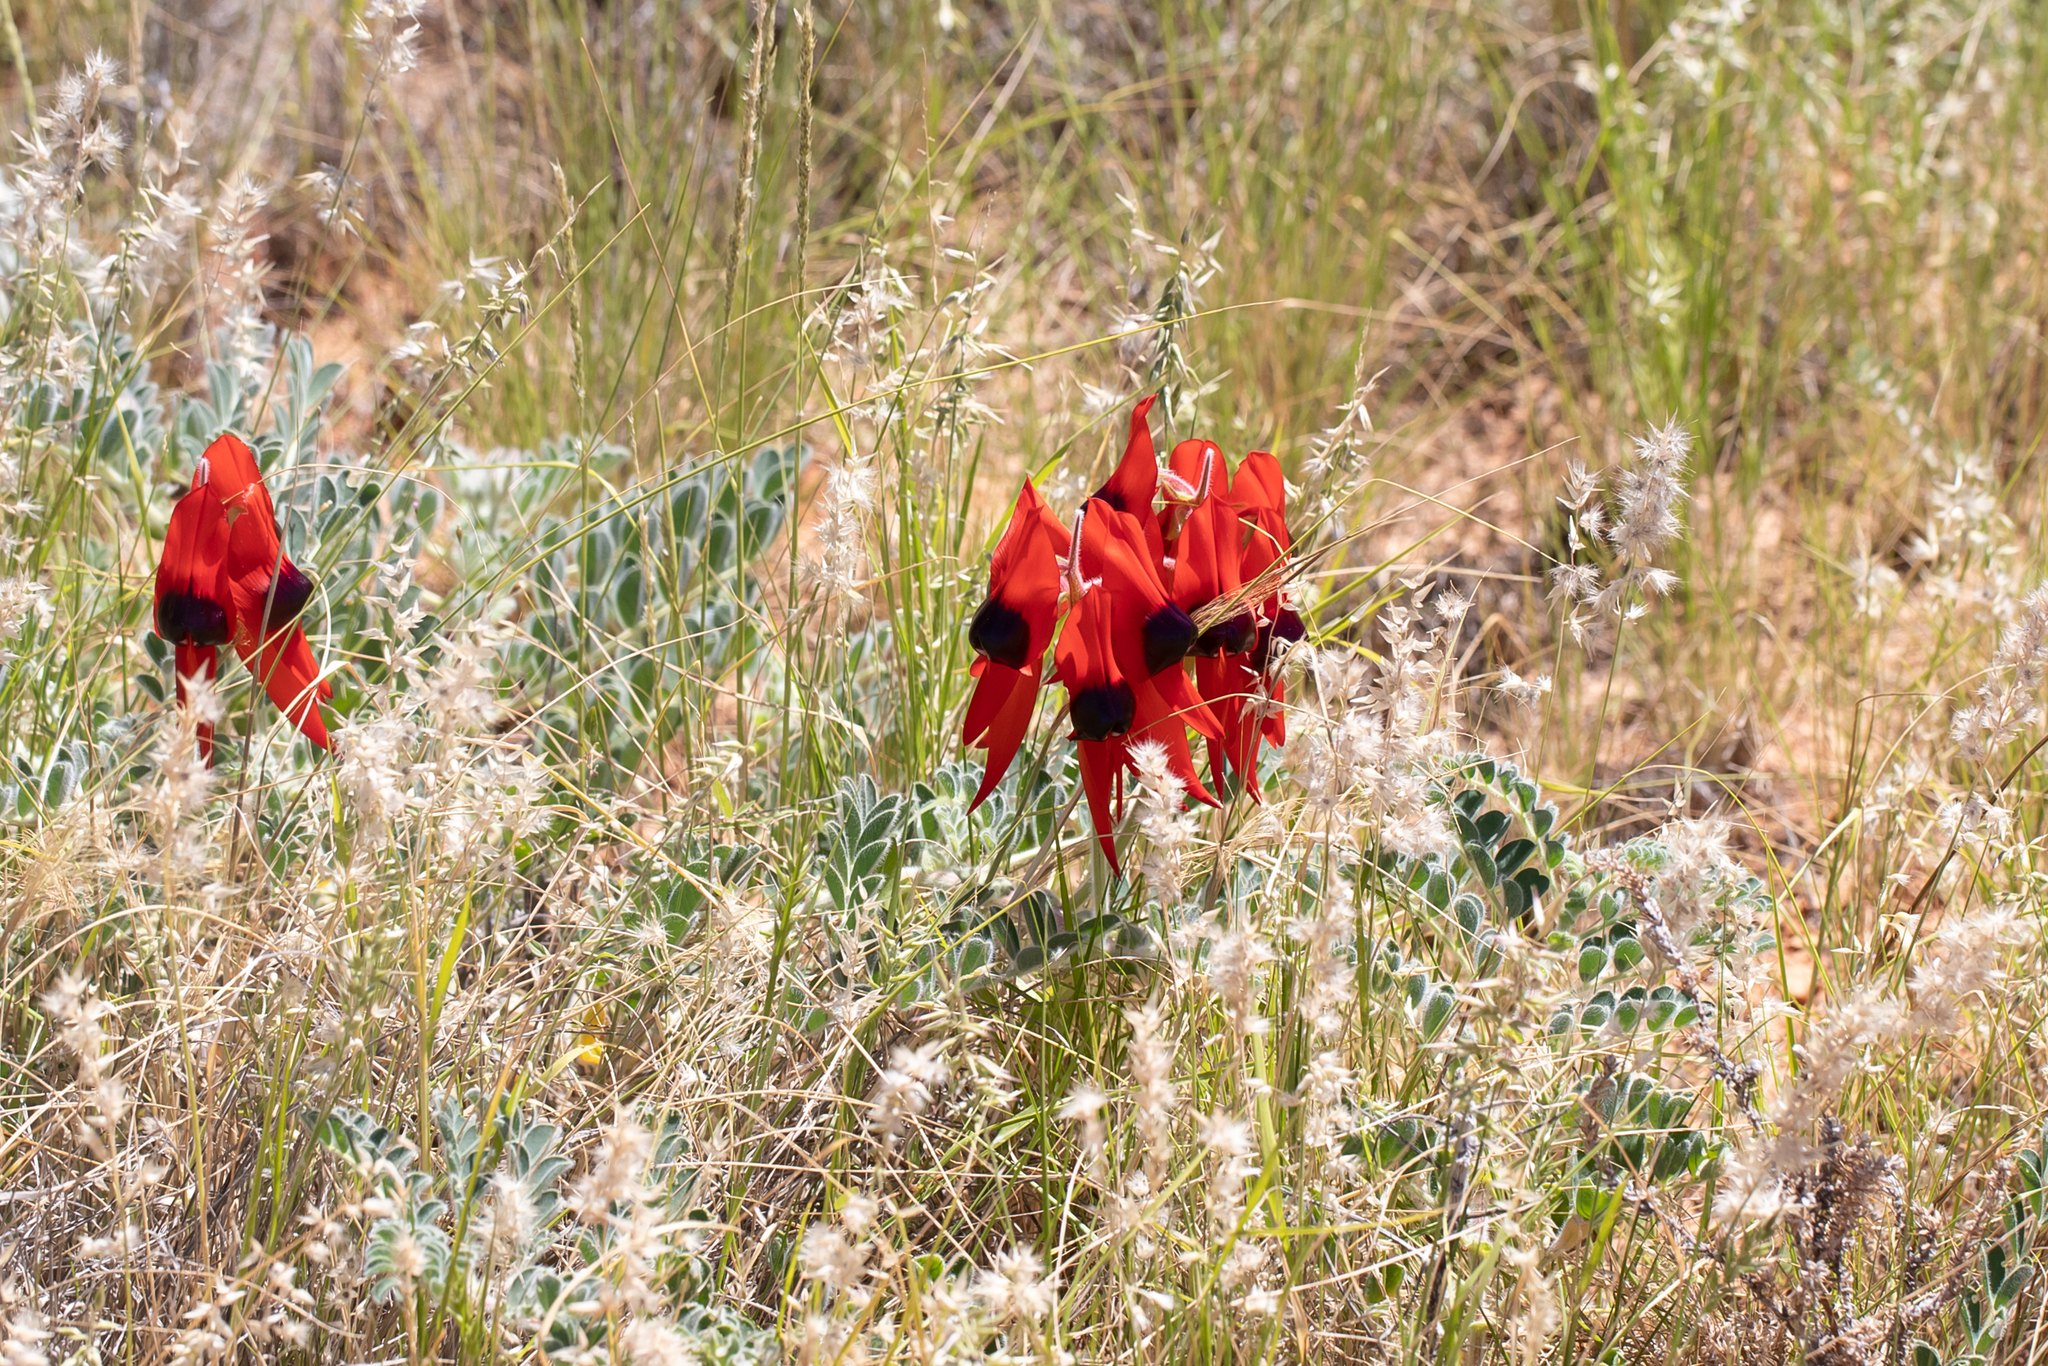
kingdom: Plantae
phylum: Tracheophyta
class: Magnoliopsida
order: Fabales
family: Fabaceae
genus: Swainsona
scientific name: Swainsona formosa
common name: Sturt's desert-pea
